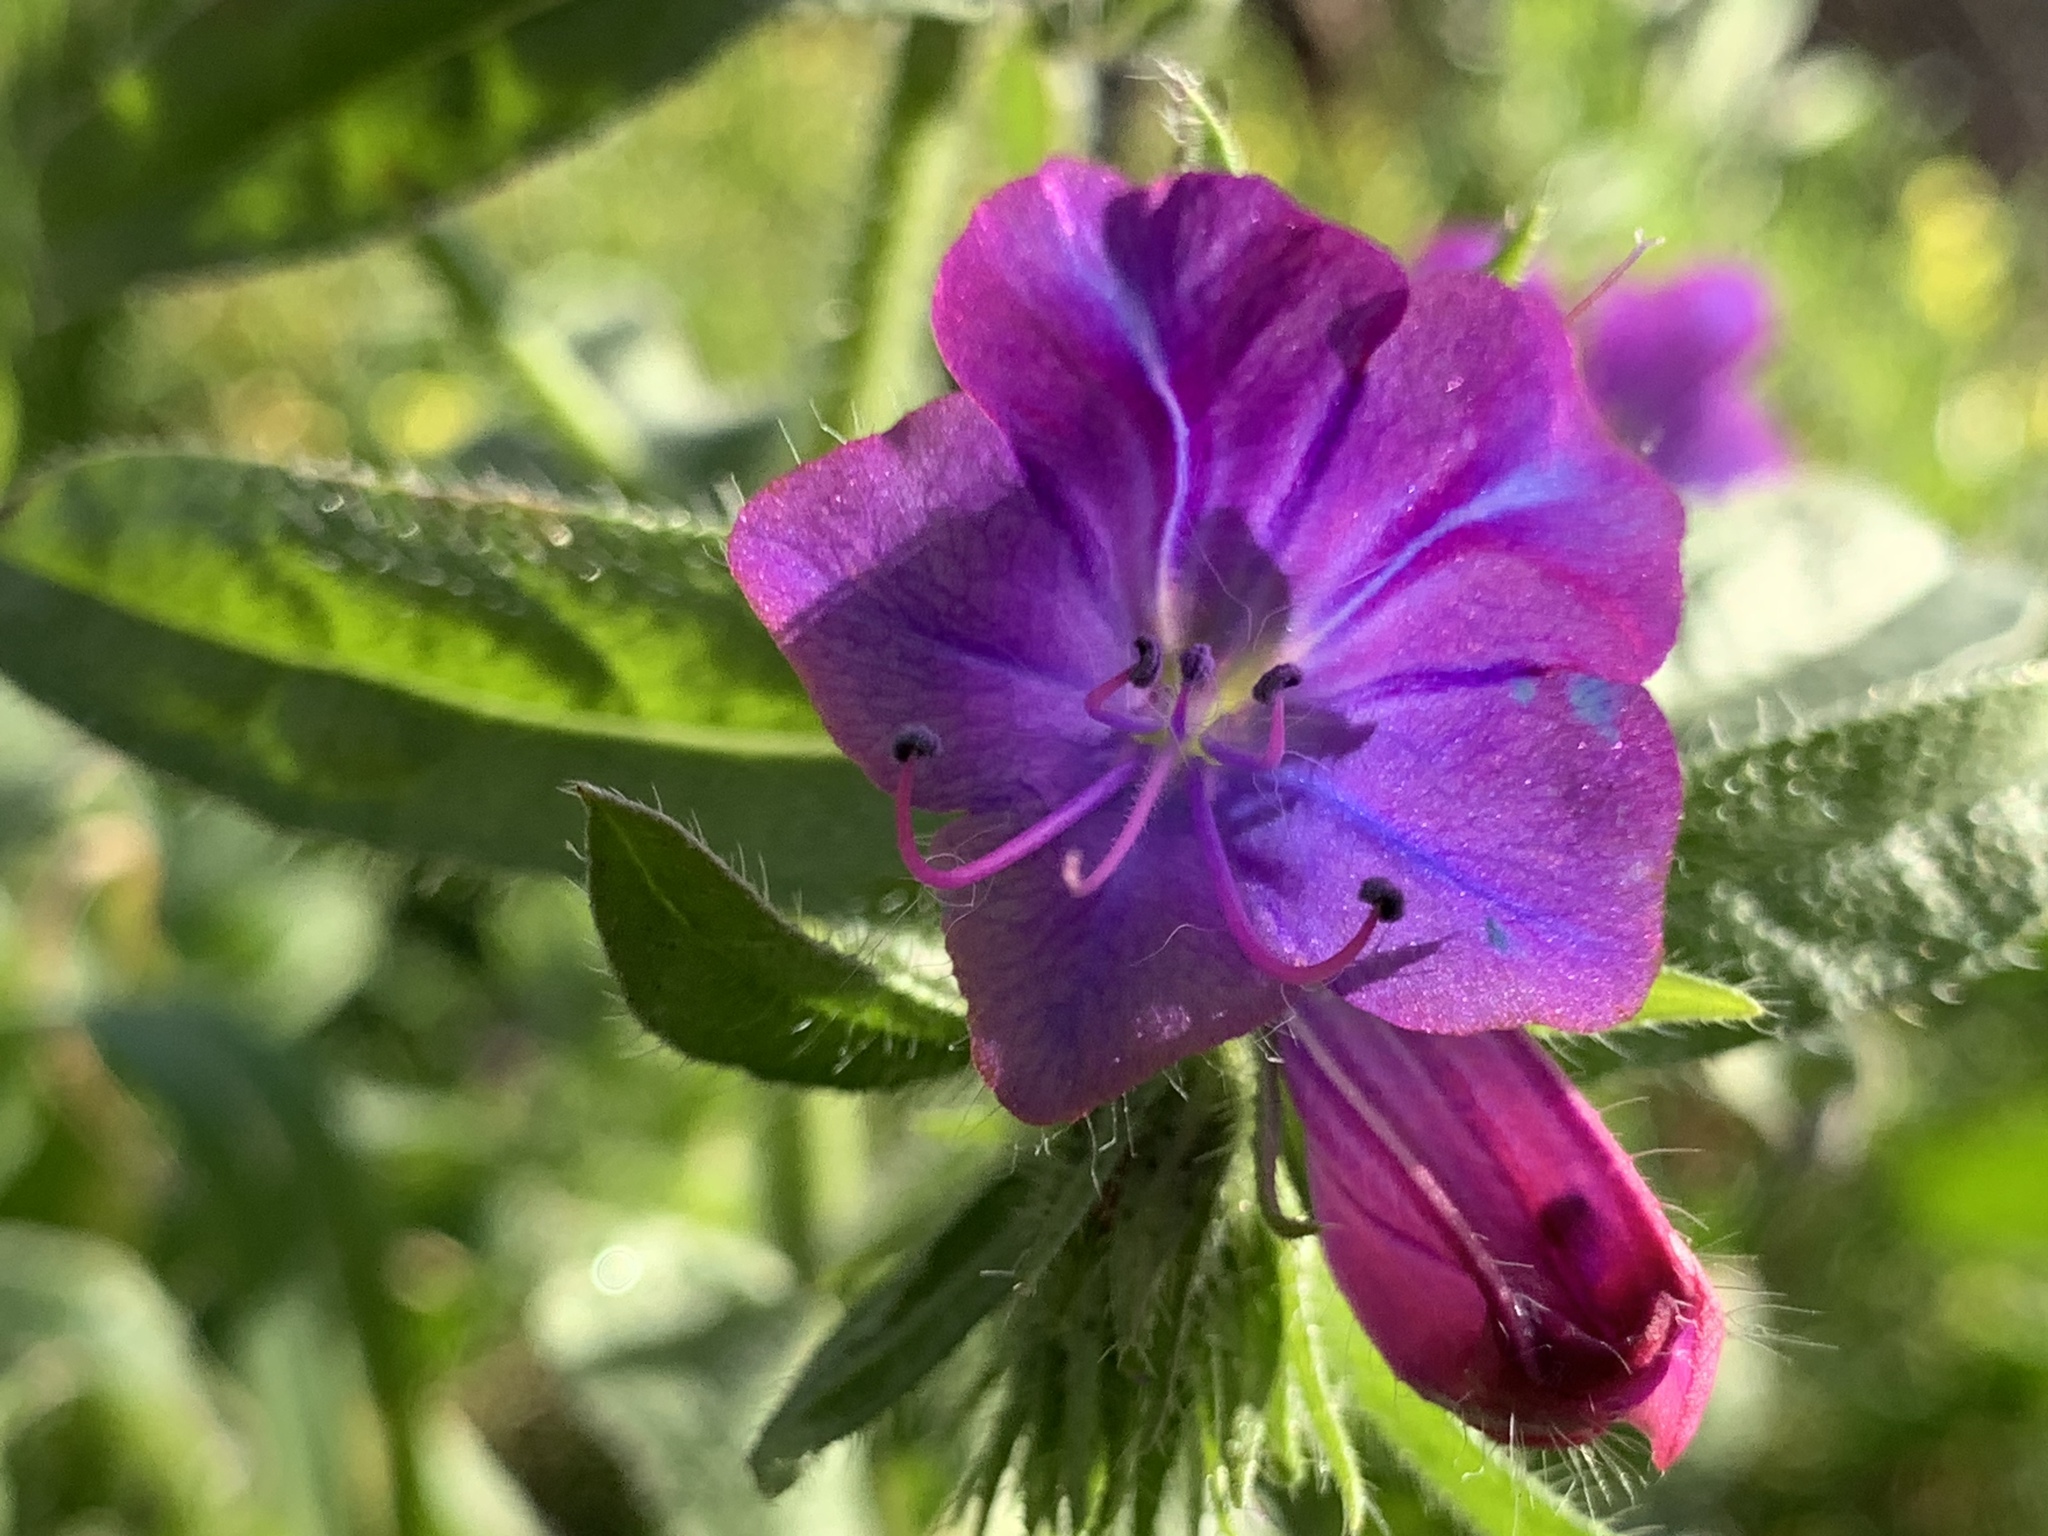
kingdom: Plantae
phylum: Tracheophyta
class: Magnoliopsida
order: Boraginales
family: Boraginaceae
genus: Echium
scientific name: Echium plantagineum
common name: Purple viper's-bugloss
